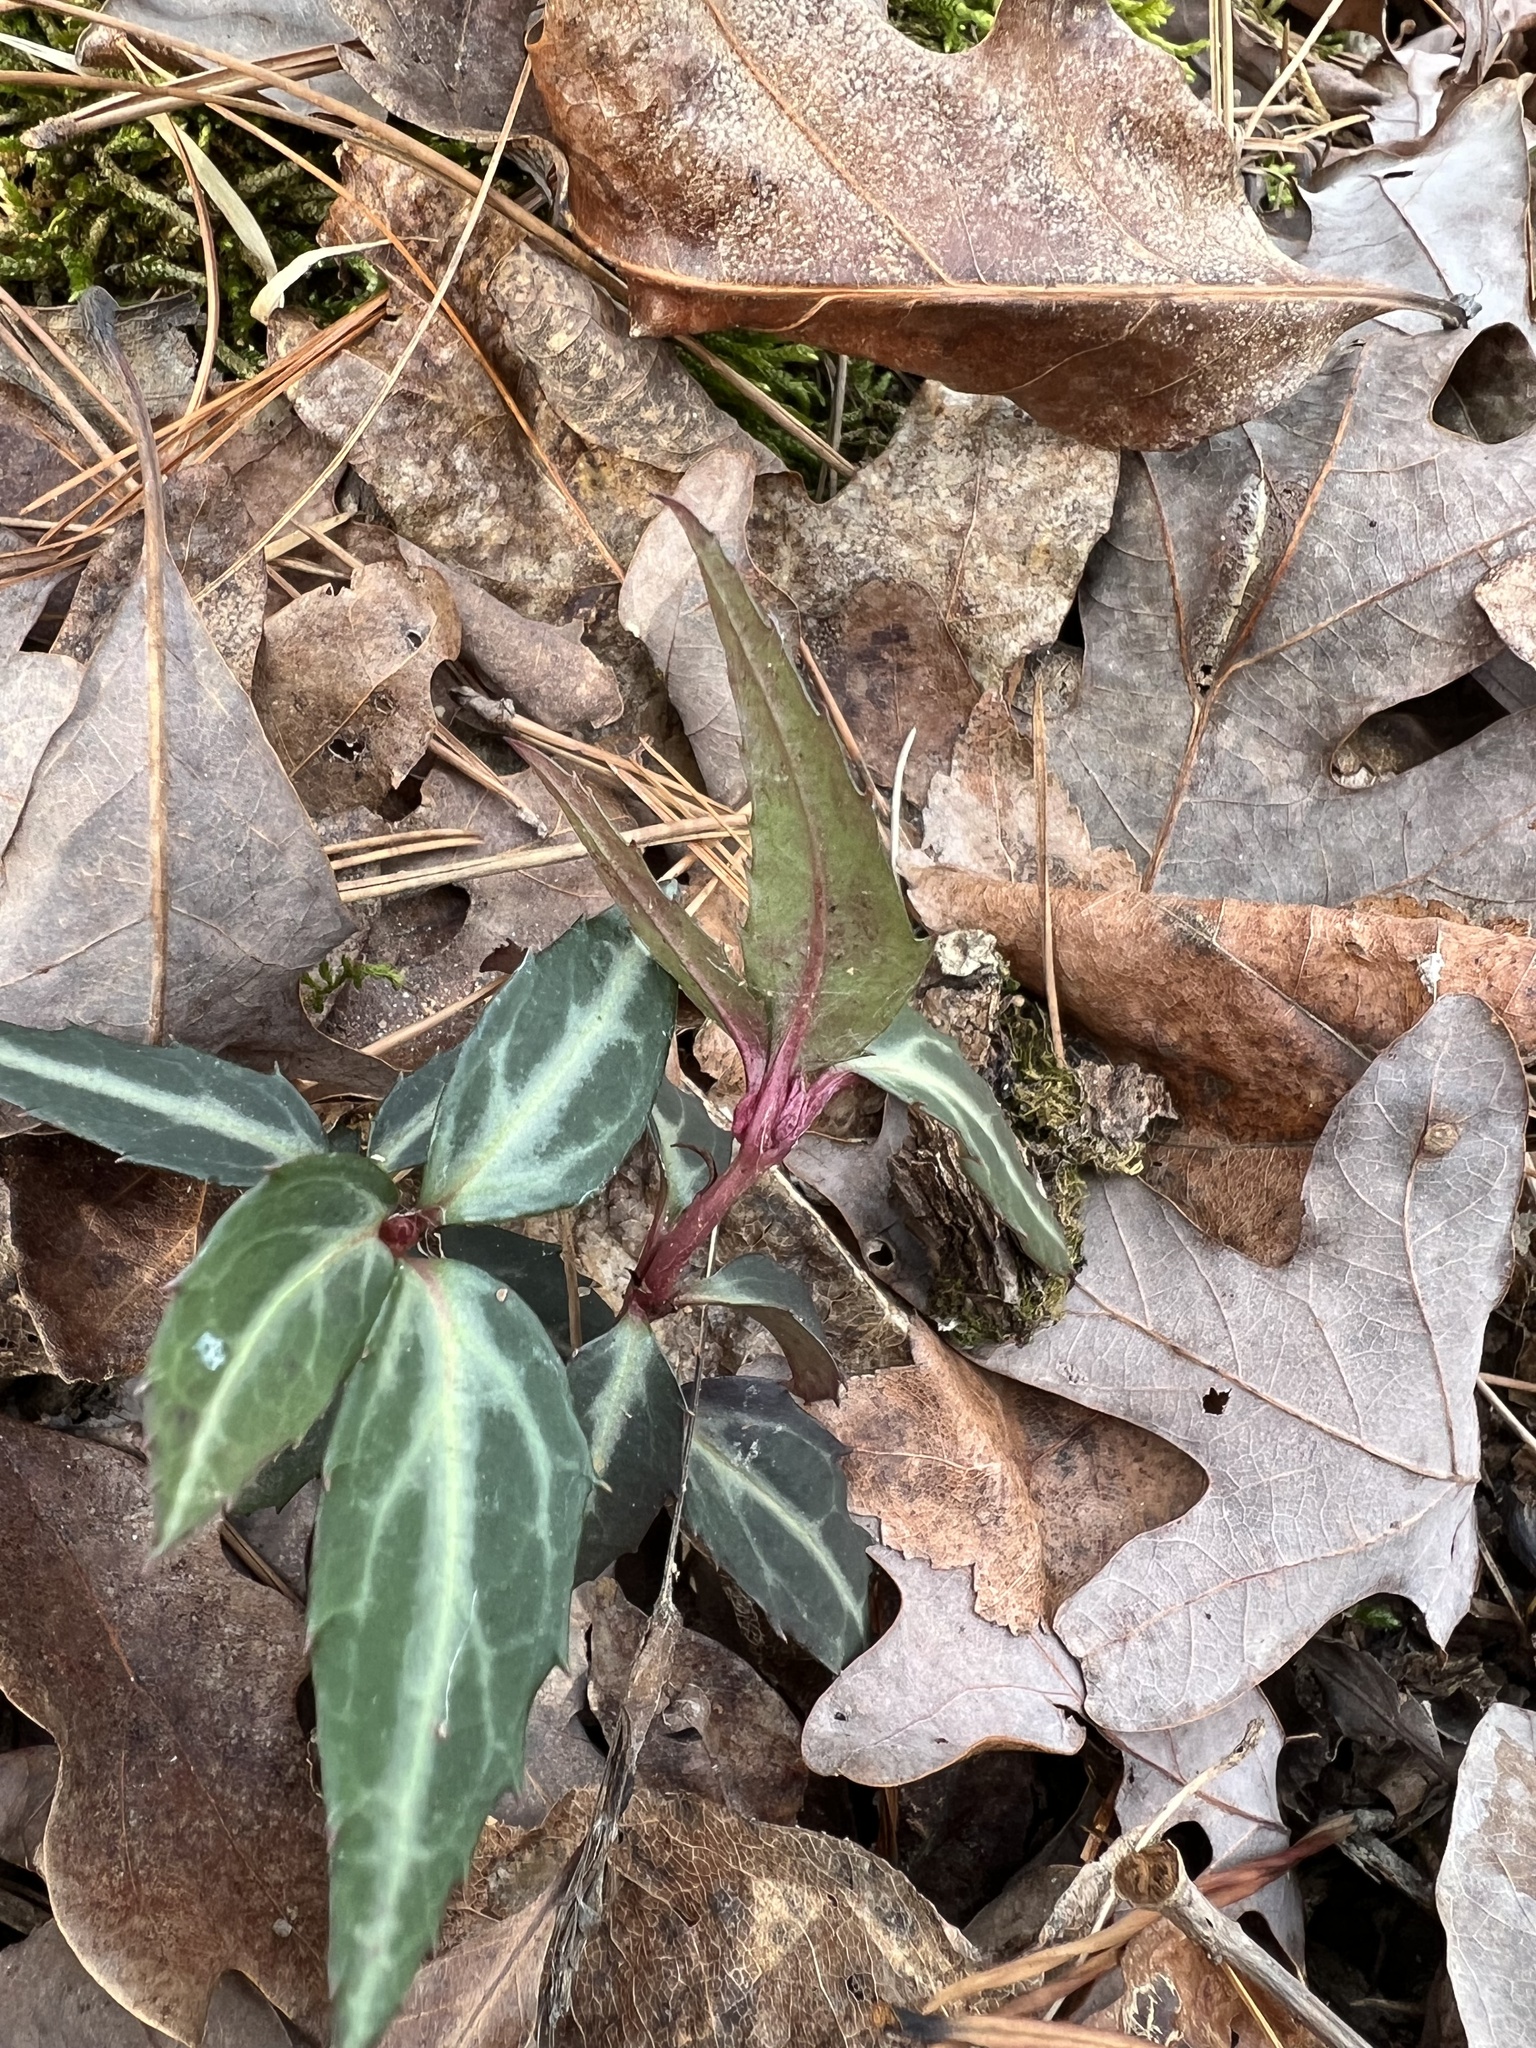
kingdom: Plantae
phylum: Tracheophyta
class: Magnoliopsida
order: Ericales
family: Ericaceae
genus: Chimaphila
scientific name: Chimaphila maculata
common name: Spotted pipsissewa
